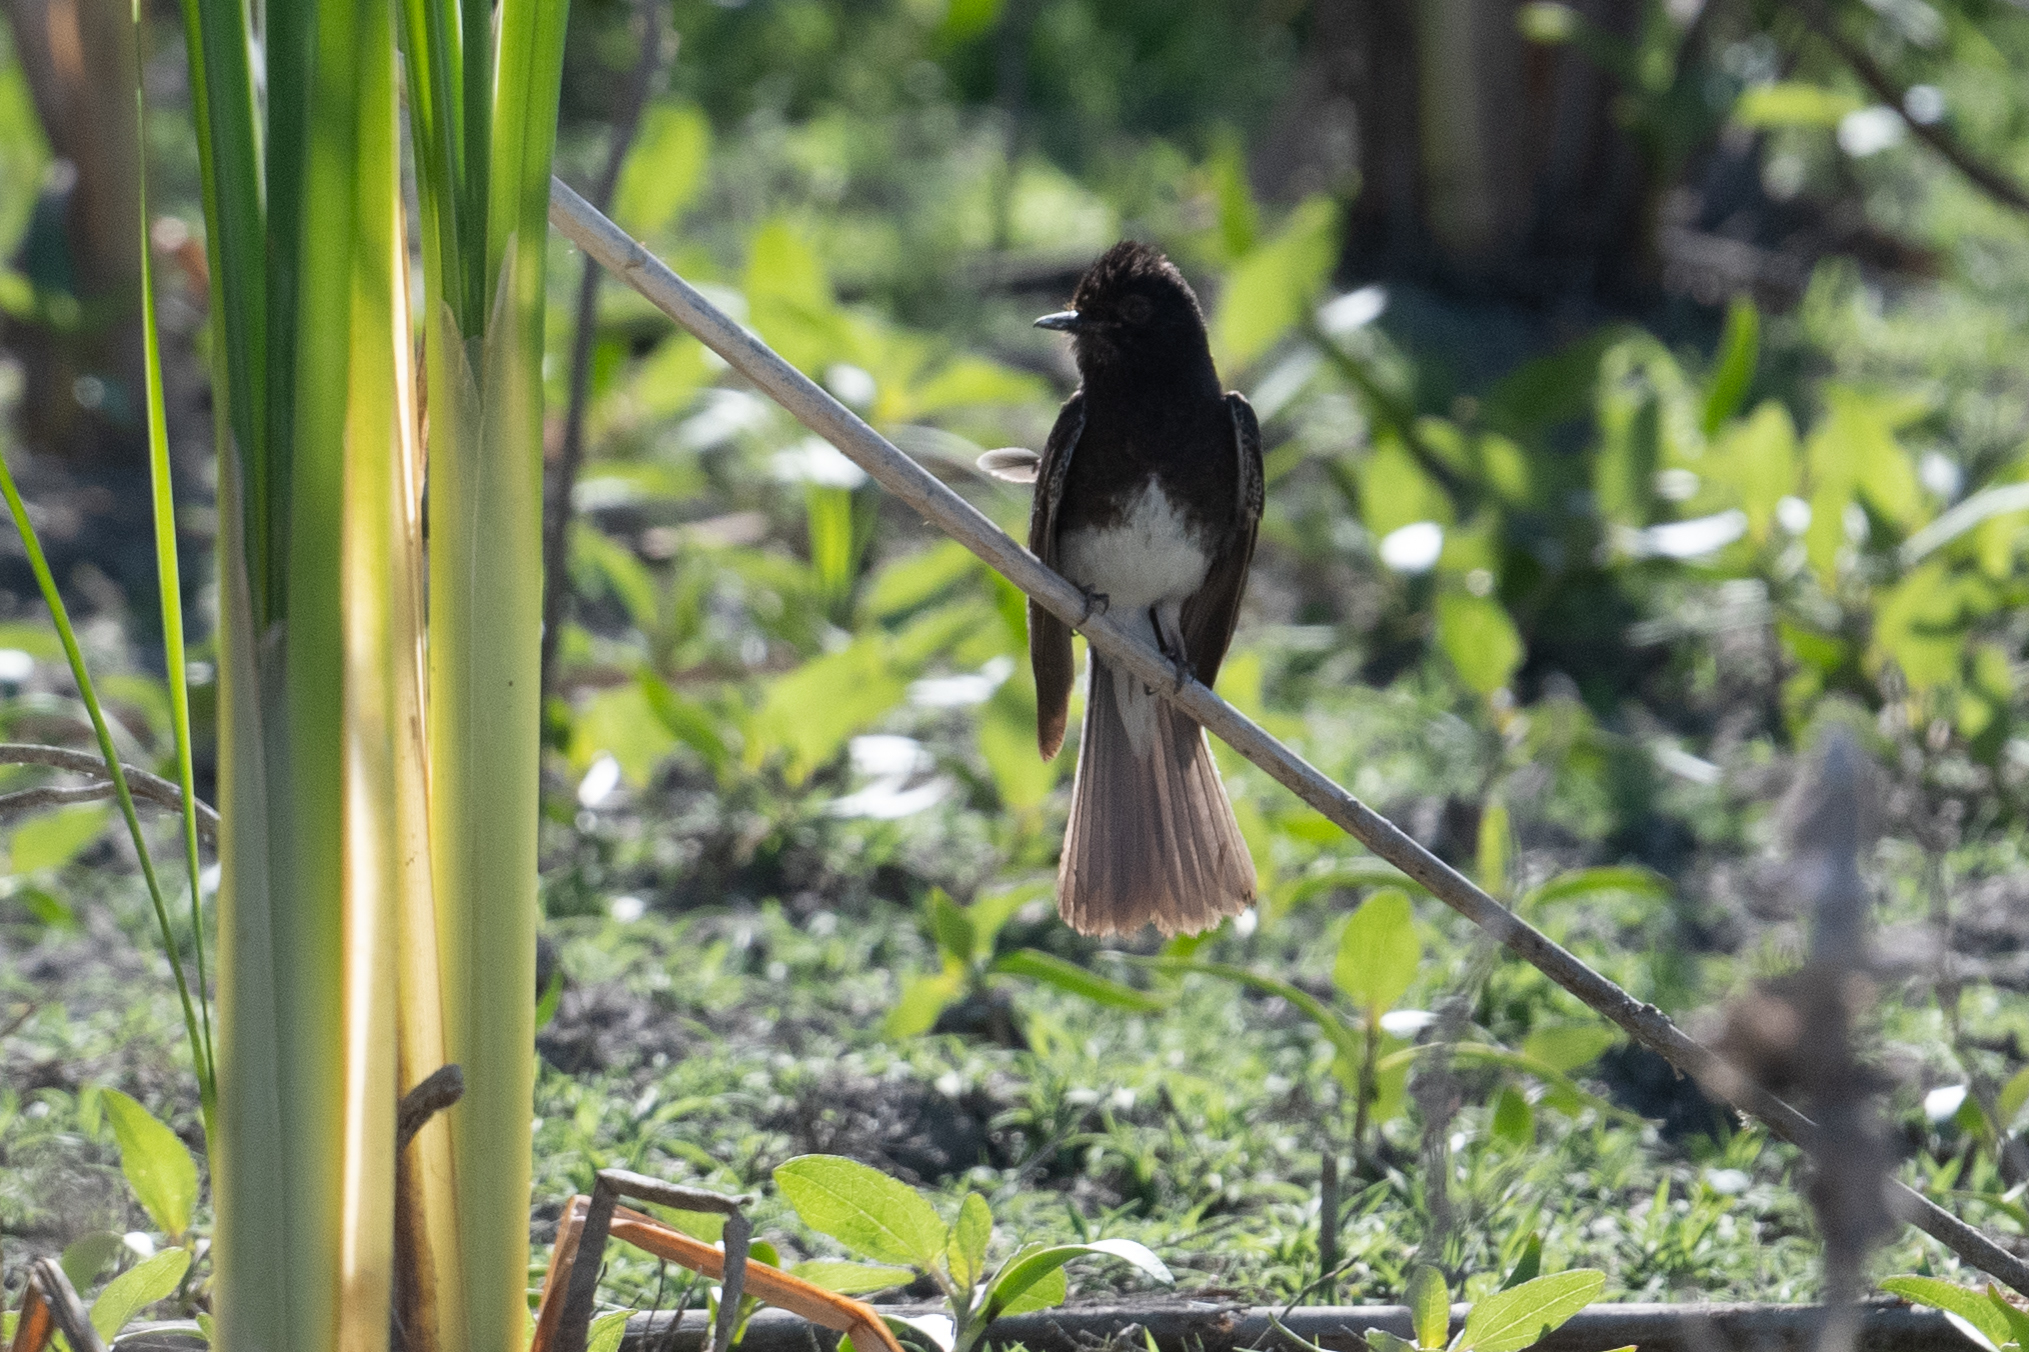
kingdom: Animalia
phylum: Chordata
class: Aves
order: Passeriformes
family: Tyrannidae
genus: Sayornis
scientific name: Sayornis nigricans
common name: Black phoebe
